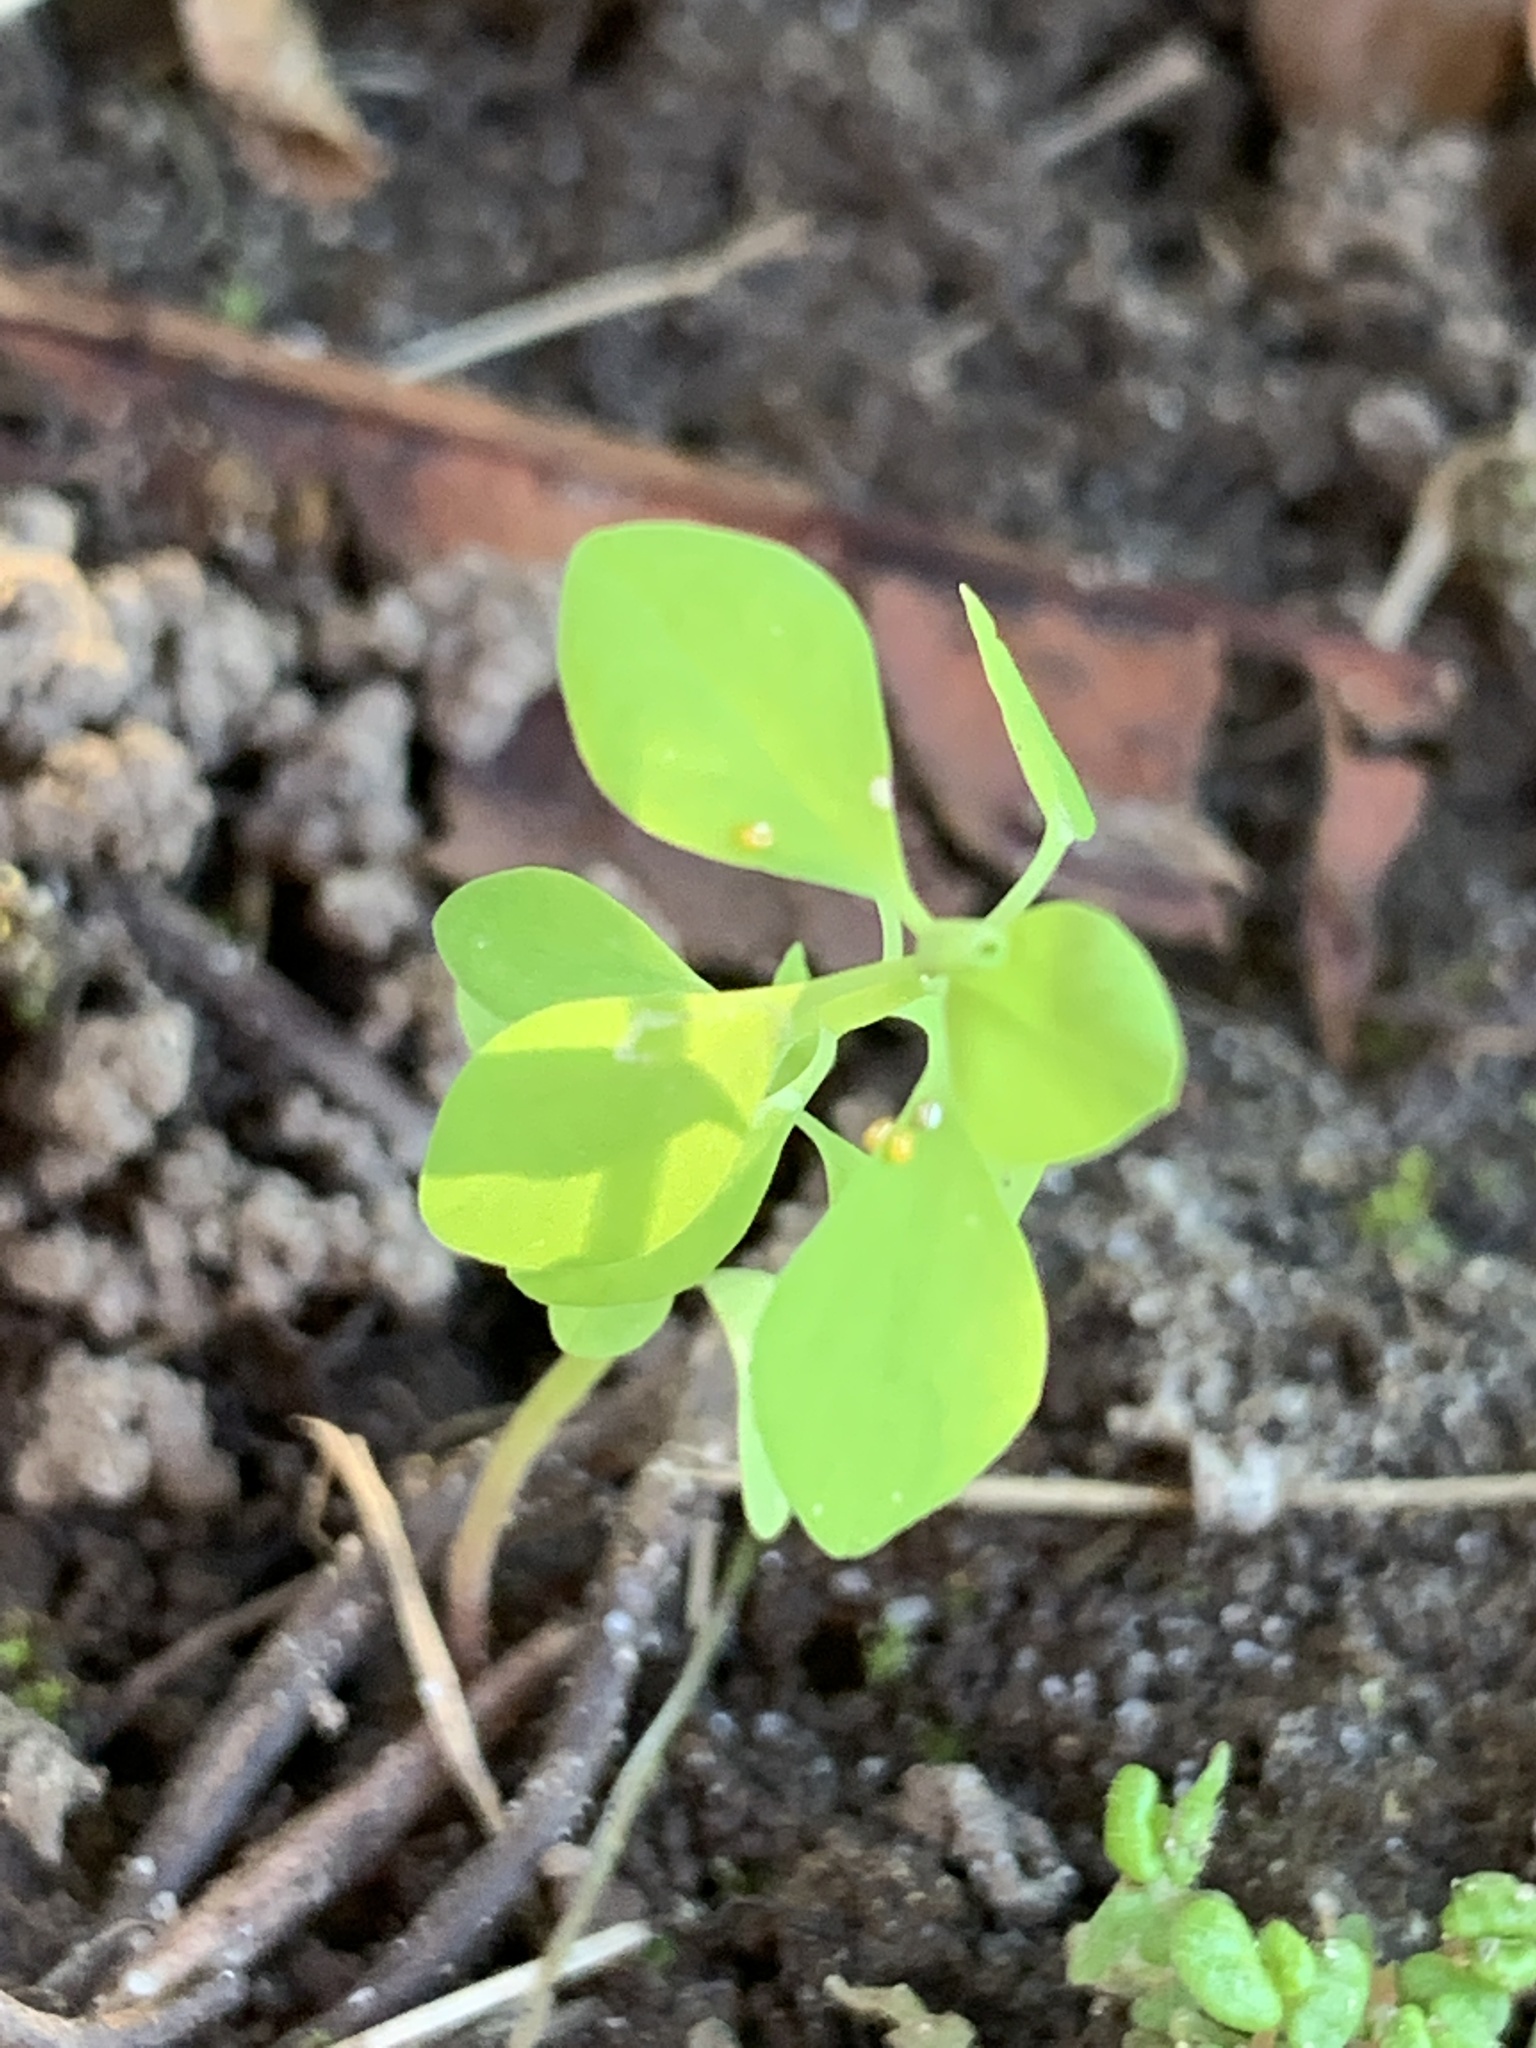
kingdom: Plantae
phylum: Tracheophyta
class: Magnoliopsida
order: Malpighiales
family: Euphorbiaceae
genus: Euphorbia
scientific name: Euphorbia peplus
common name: Petty spurge
